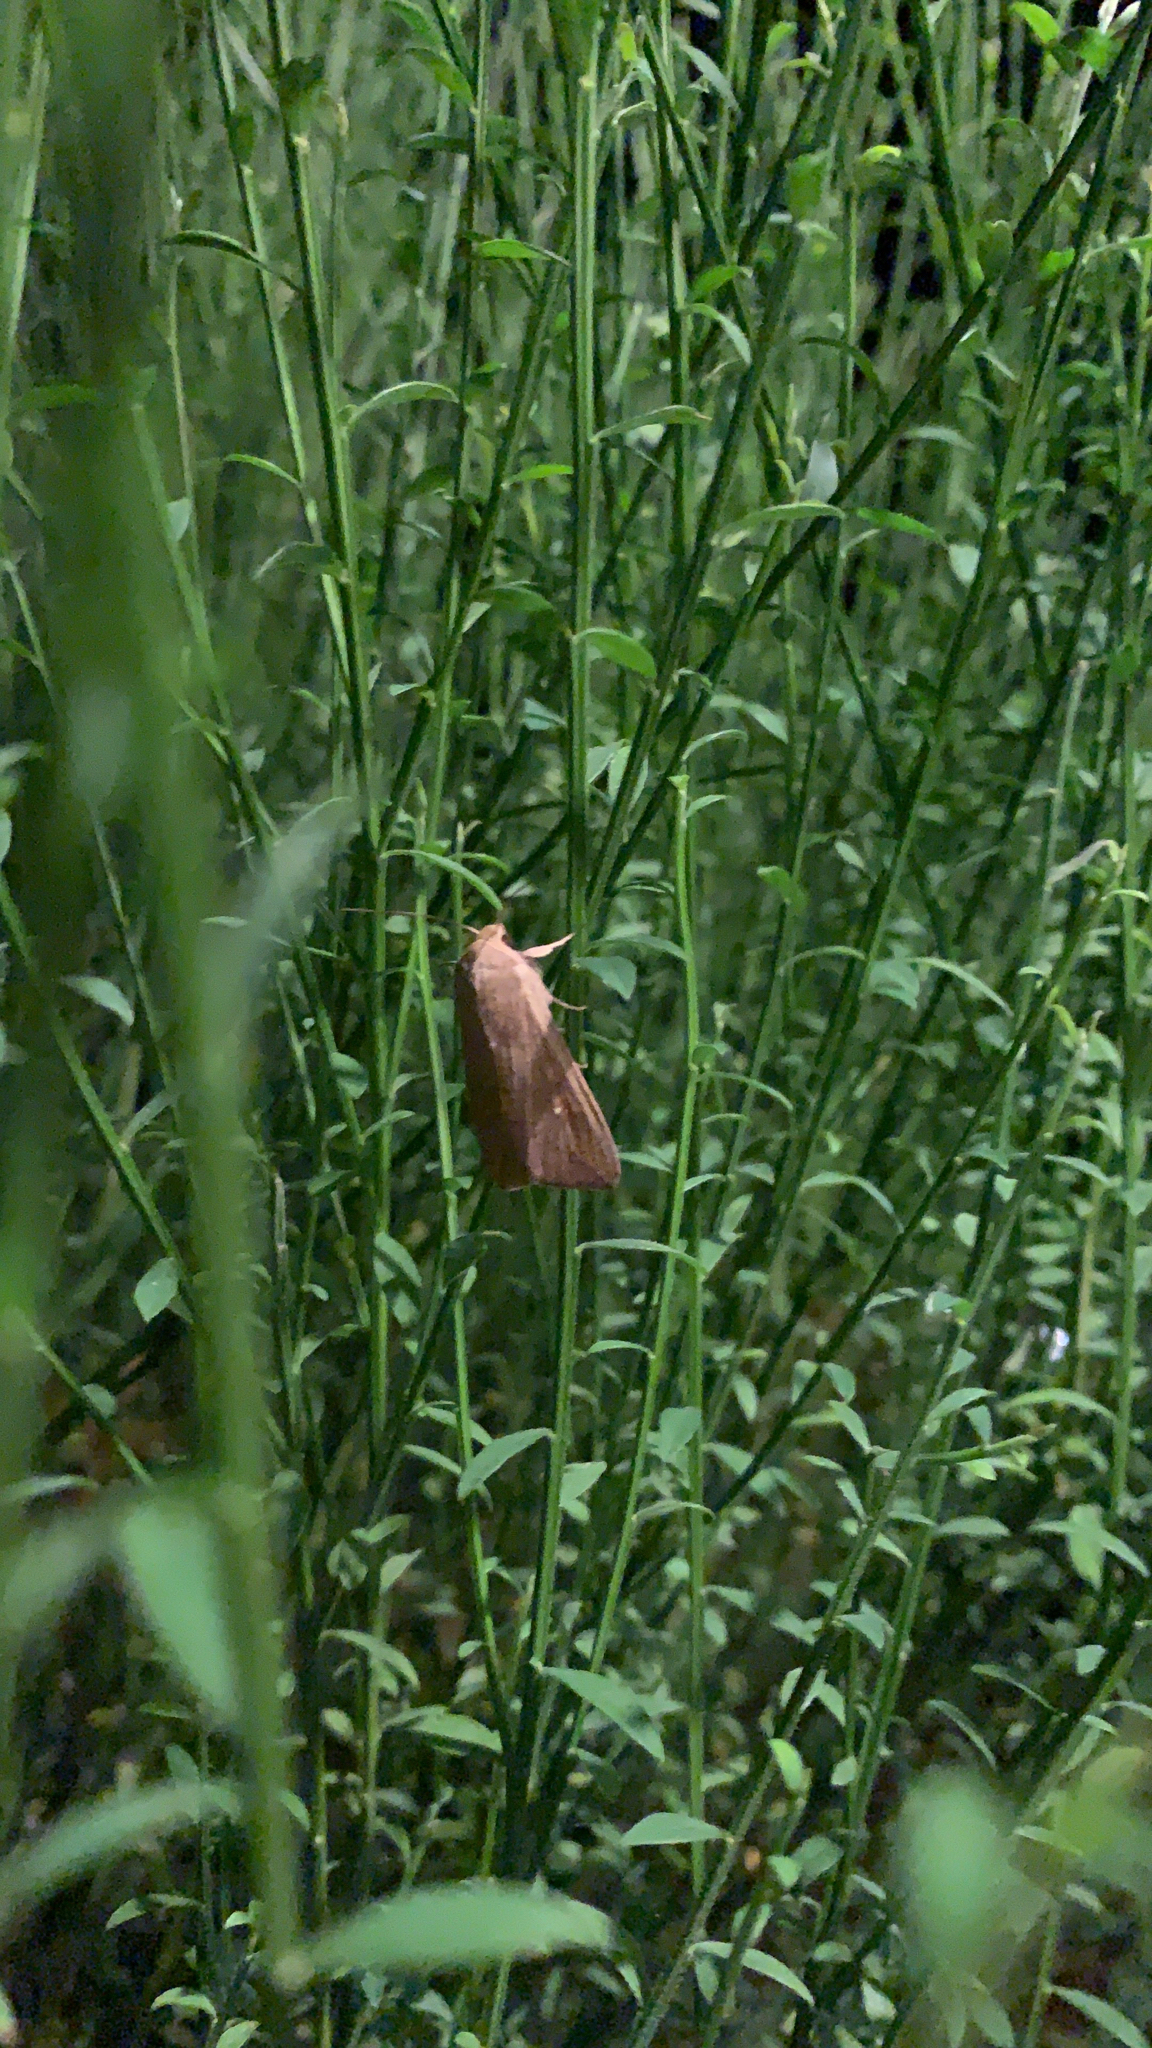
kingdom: Animalia
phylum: Arthropoda
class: Insecta
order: Lepidoptera
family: Noctuidae
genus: Mythimna
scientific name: Mythimna unipuncta
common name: White-speck
